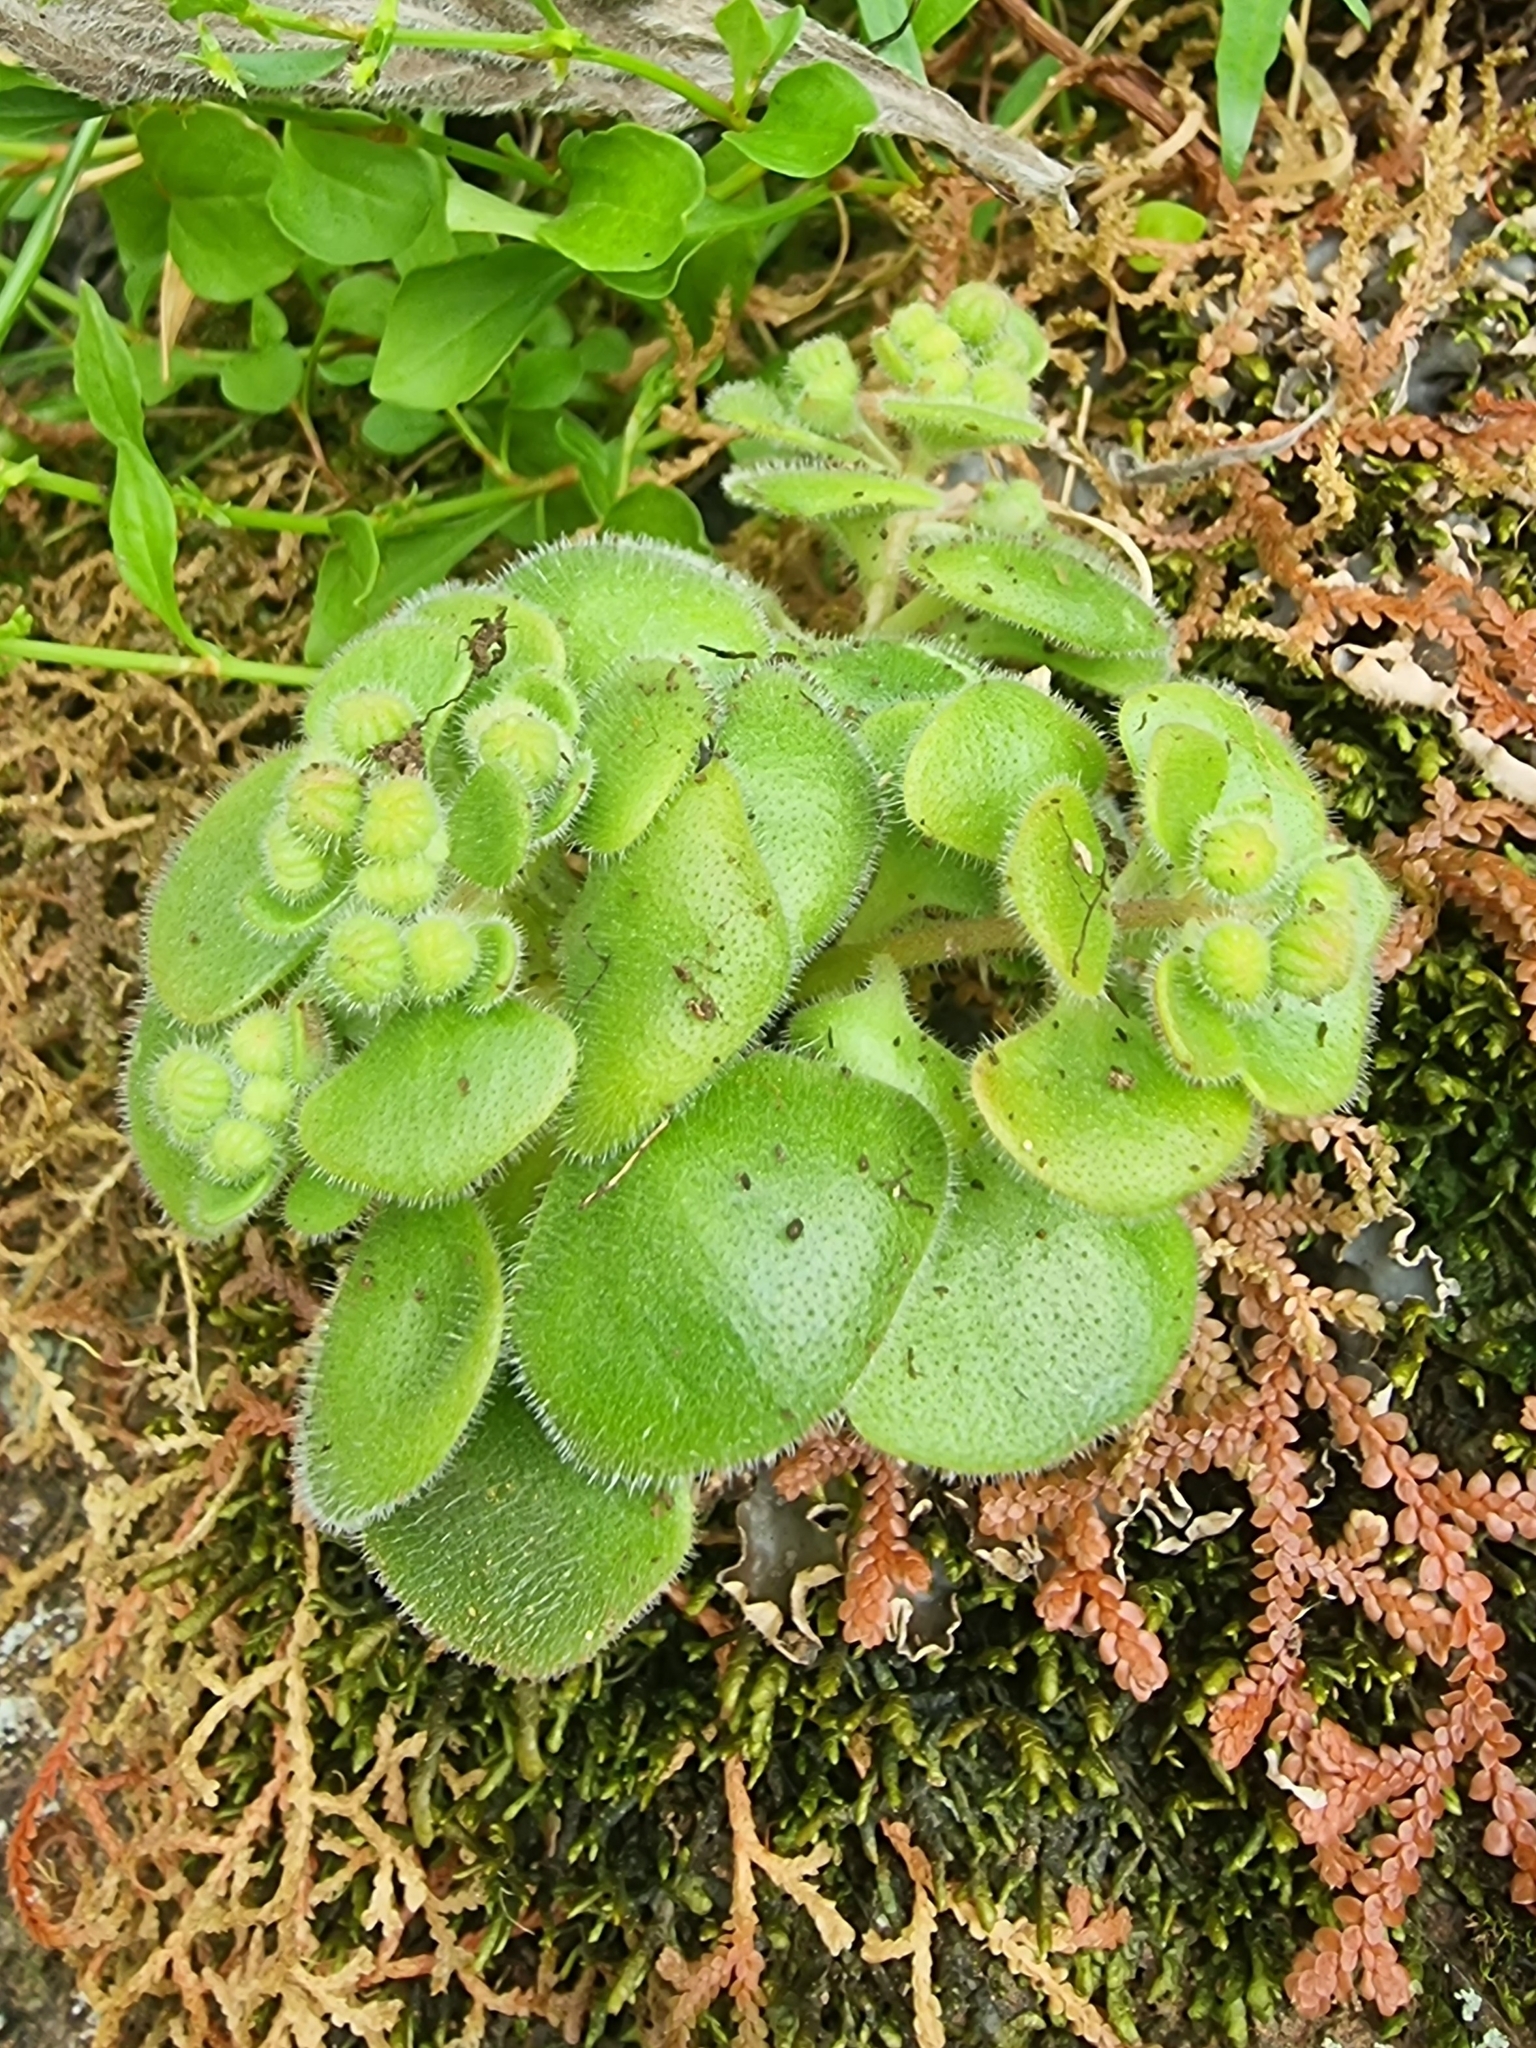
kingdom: Plantae
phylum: Tracheophyta
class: Magnoliopsida
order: Saxifragales
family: Crassulaceae
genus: Aichryson
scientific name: Aichryson villosum
